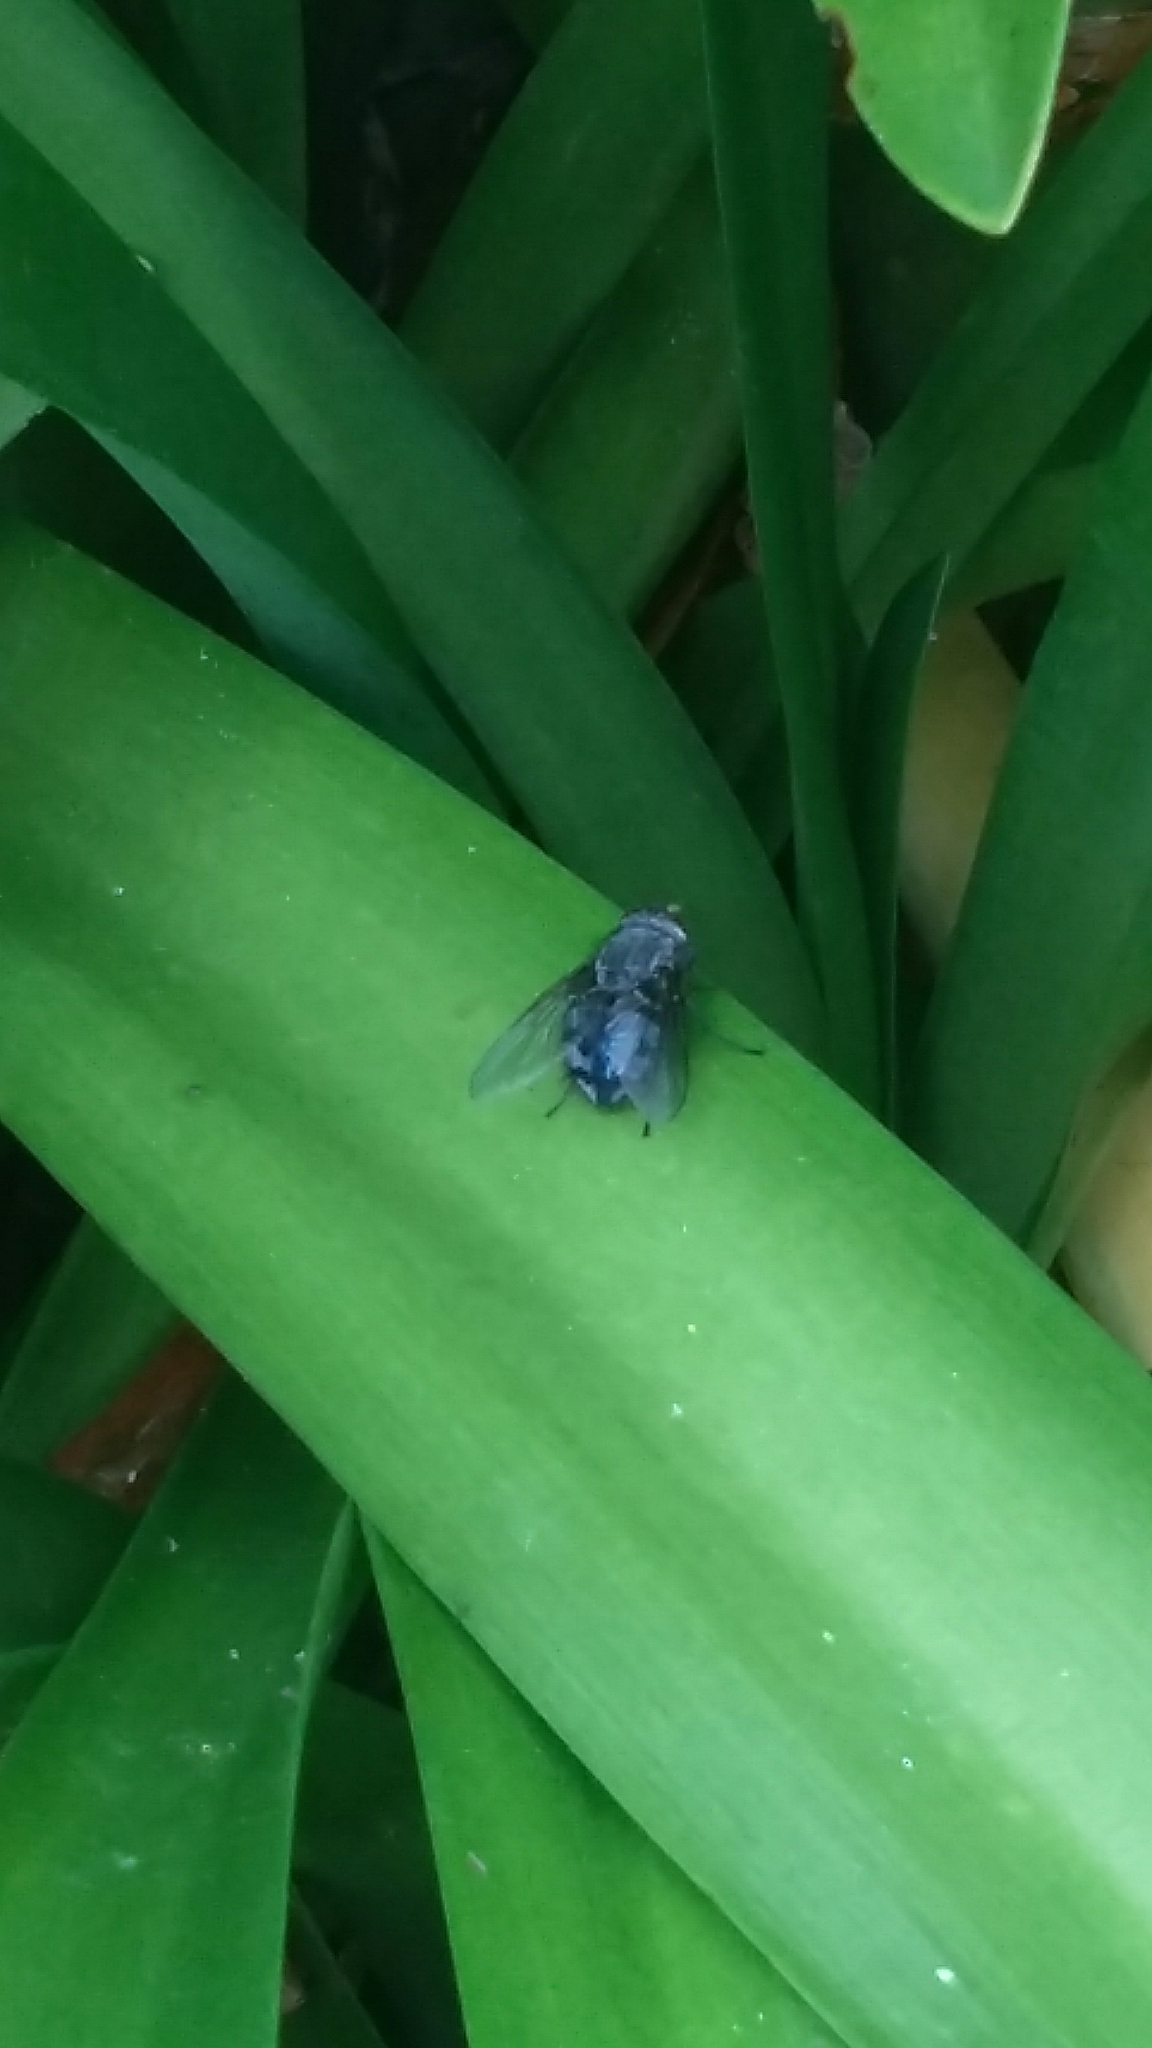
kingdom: Animalia
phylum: Arthropoda
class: Insecta
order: Diptera
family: Calliphoridae
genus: Calliphora
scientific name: Calliphora vicina
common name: Common blow flie
